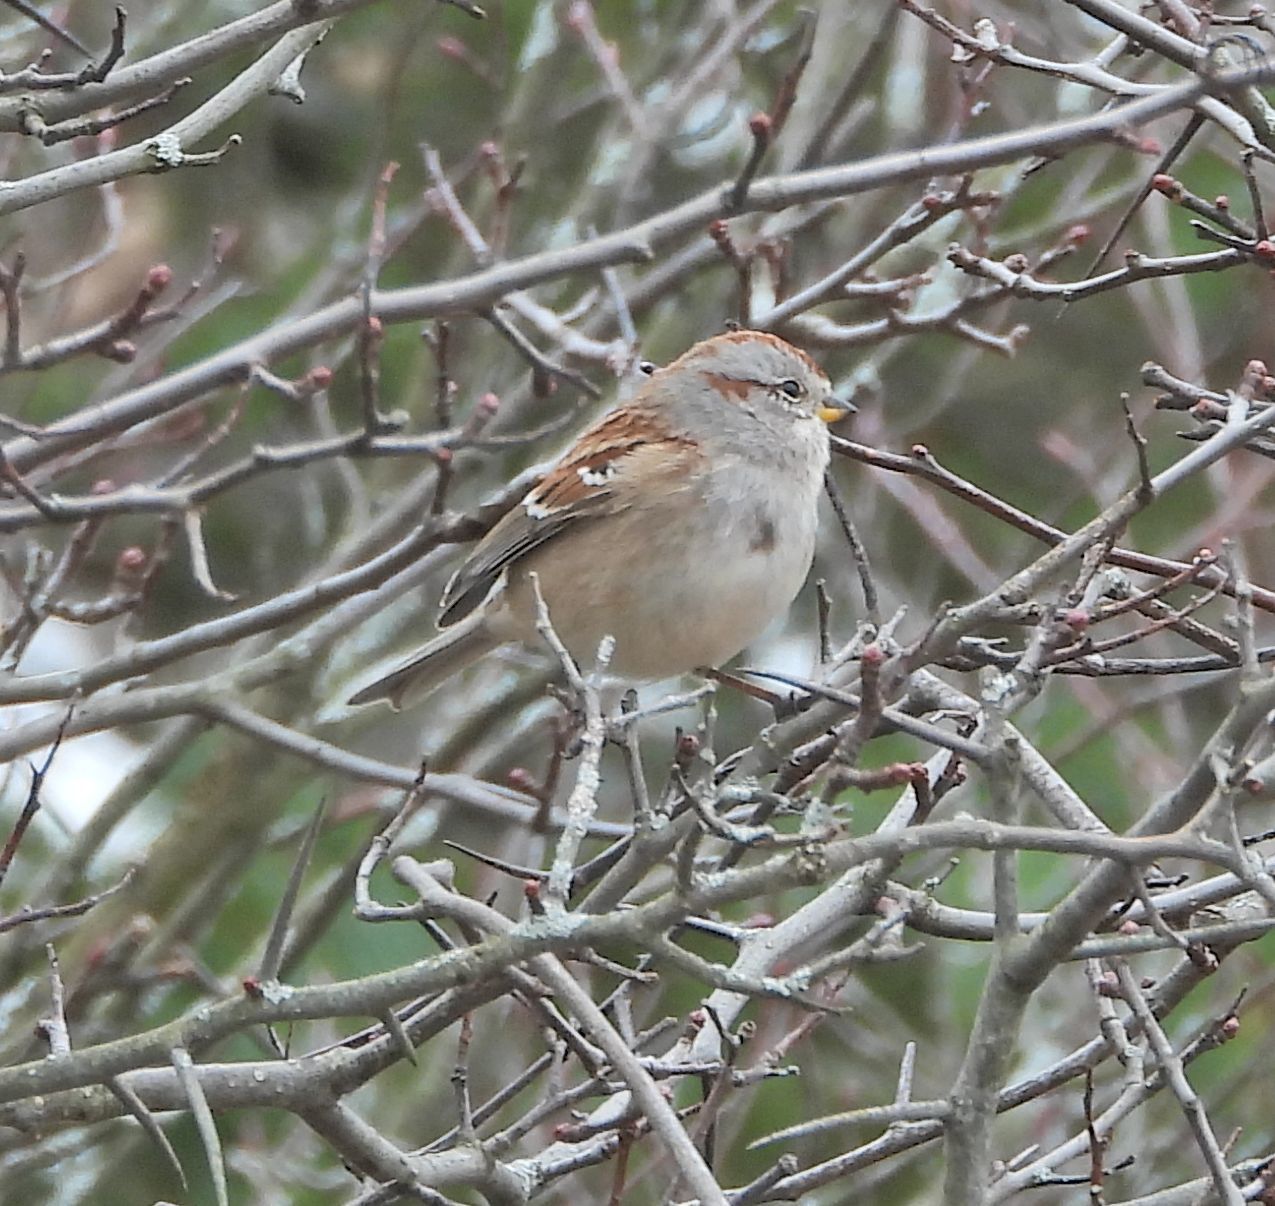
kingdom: Animalia
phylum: Chordata
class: Aves
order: Passeriformes
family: Passerellidae
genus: Spizelloides
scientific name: Spizelloides arborea
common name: American tree sparrow
